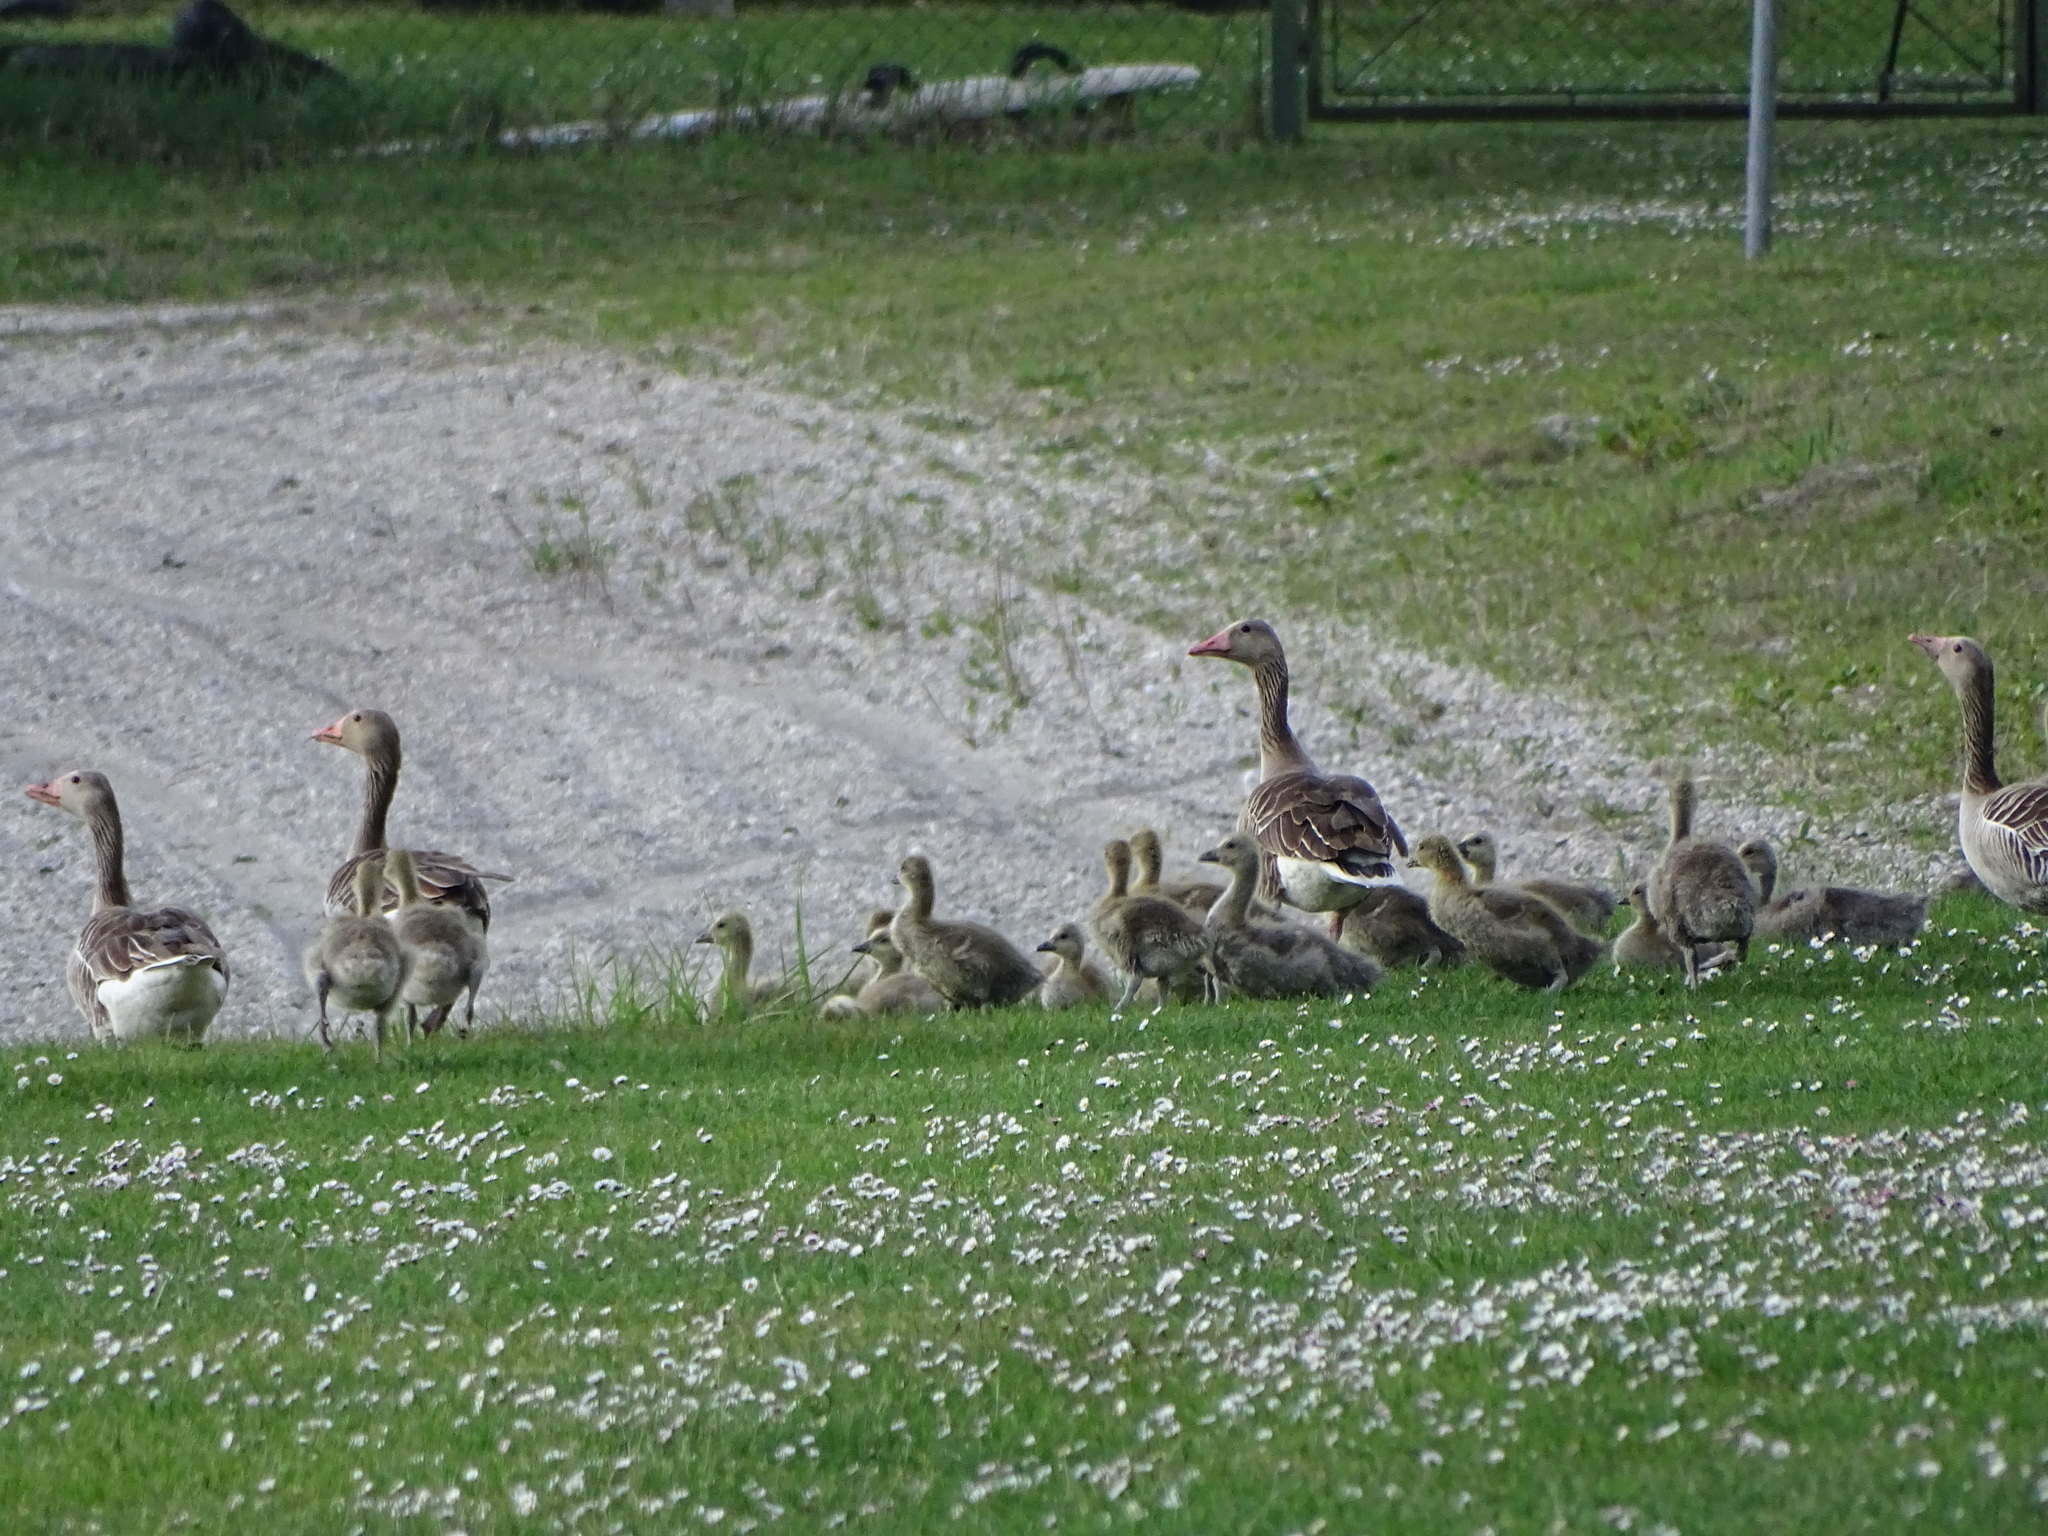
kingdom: Animalia
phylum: Chordata
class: Aves
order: Anseriformes
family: Anatidae
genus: Anser
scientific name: Anser anser
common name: Greylag goose
